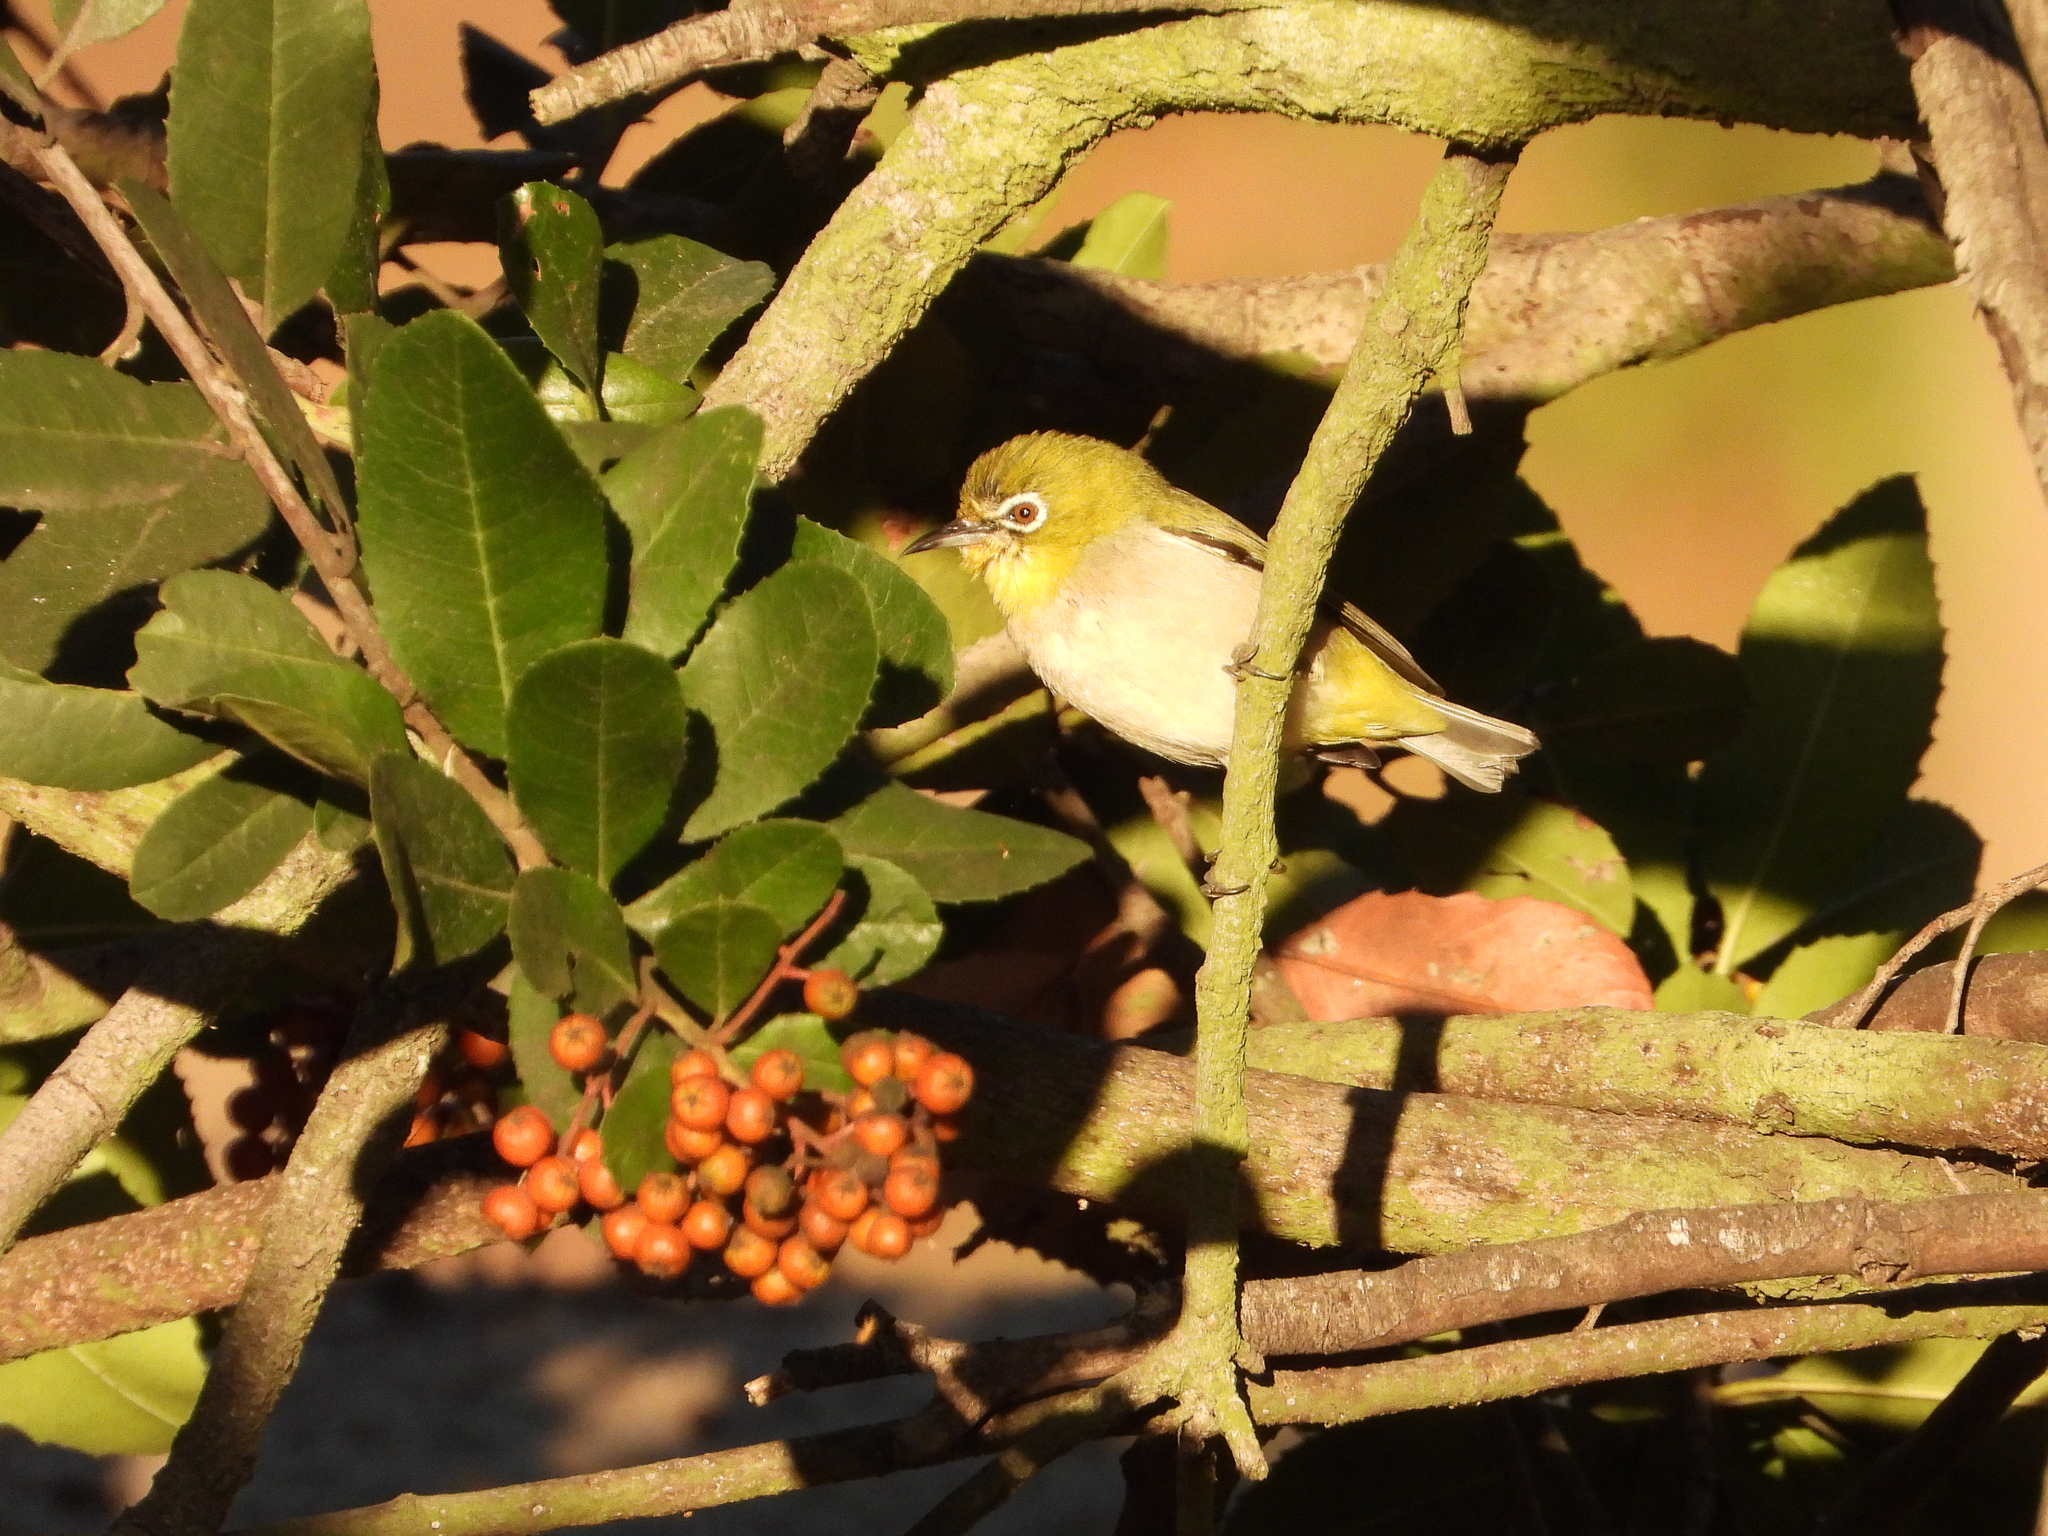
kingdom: Animalia
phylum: Chordata
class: Aves
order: Passeriformes
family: Zosteropidae
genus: Zosterops
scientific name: Zosterops simplex
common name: Swinhoe's white-eye
